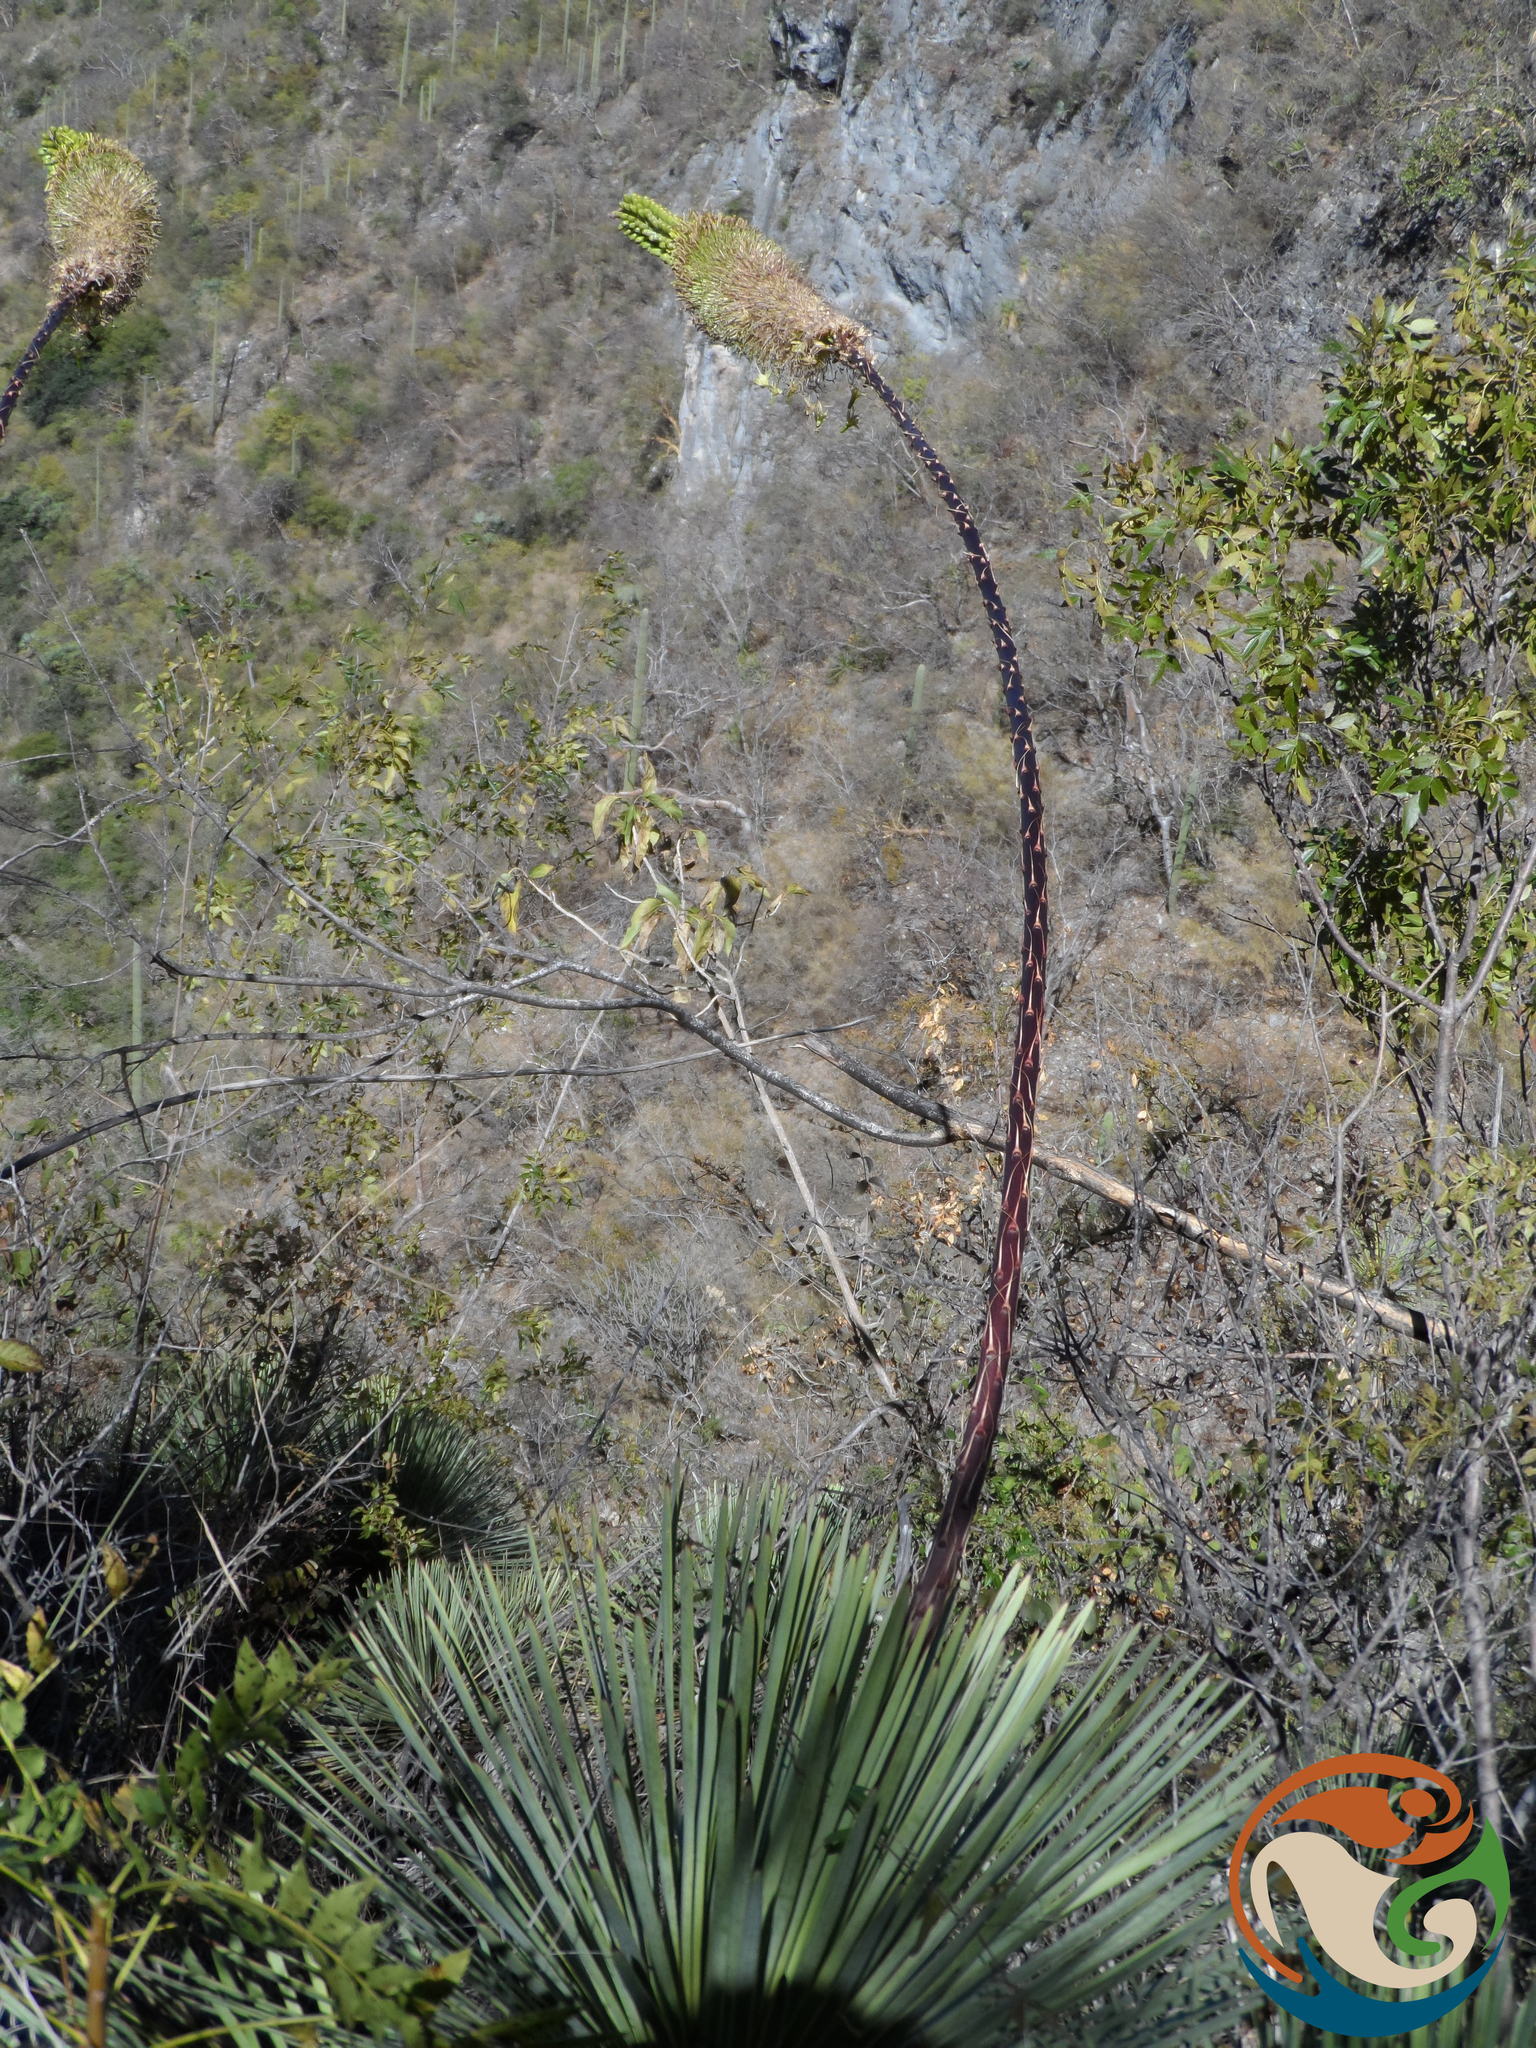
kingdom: Plantae
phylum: Tracheophyta
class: Liliopsida
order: Asparagales
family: Asparagaceae
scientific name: Asparagaceae
